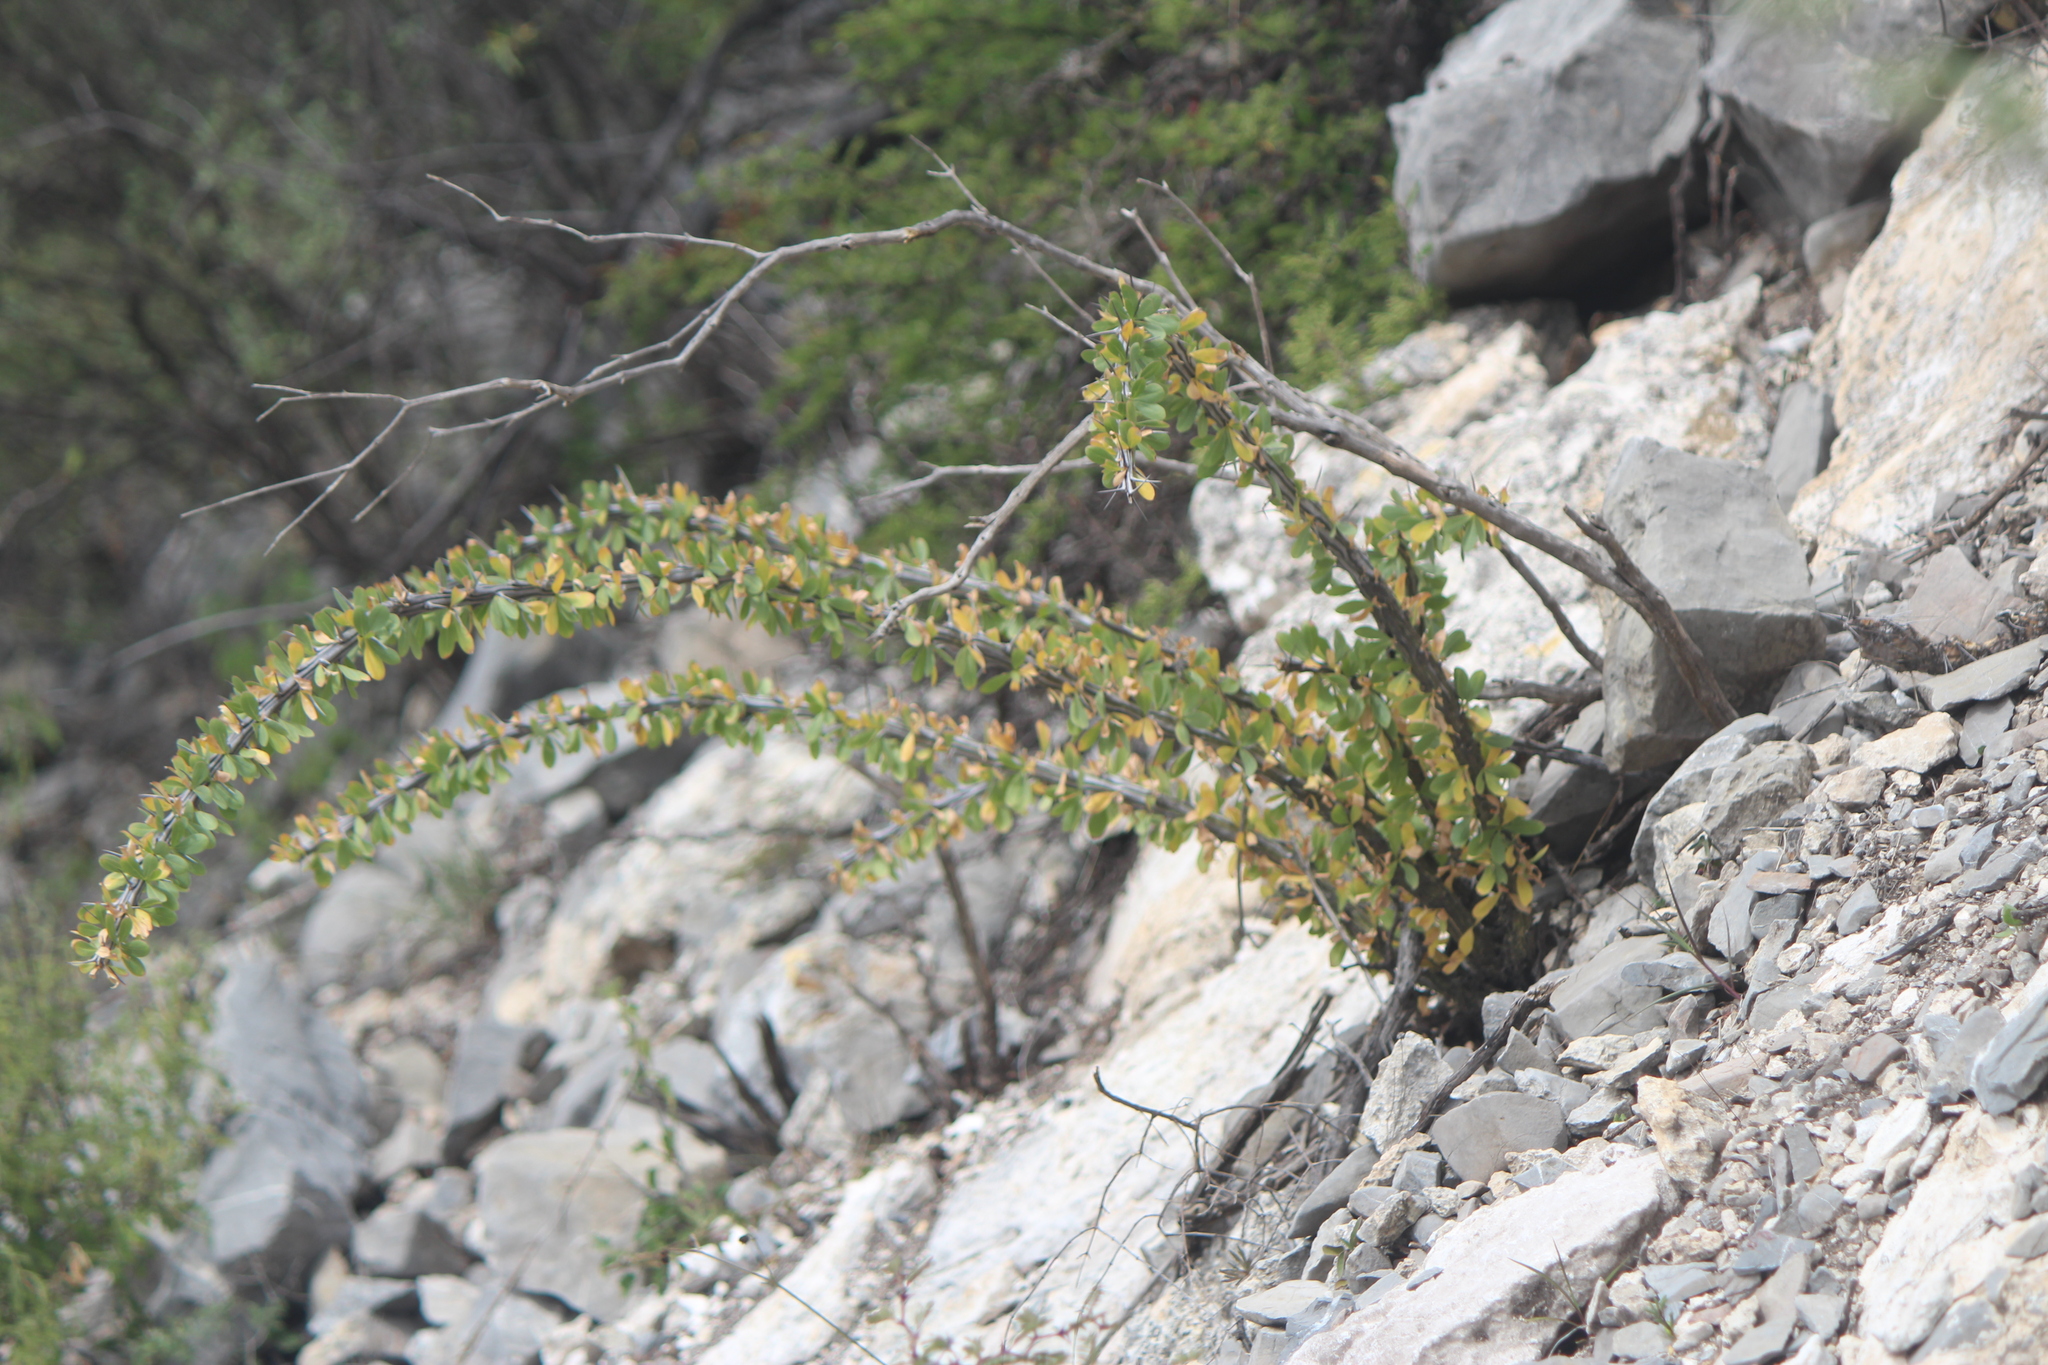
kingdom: Plantae
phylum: Tracheophyta
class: Magnoliopsida
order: Ericales
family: Fouquieriaceae
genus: Fouquieria
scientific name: Fouquieria splendens
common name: Vine-cactus
